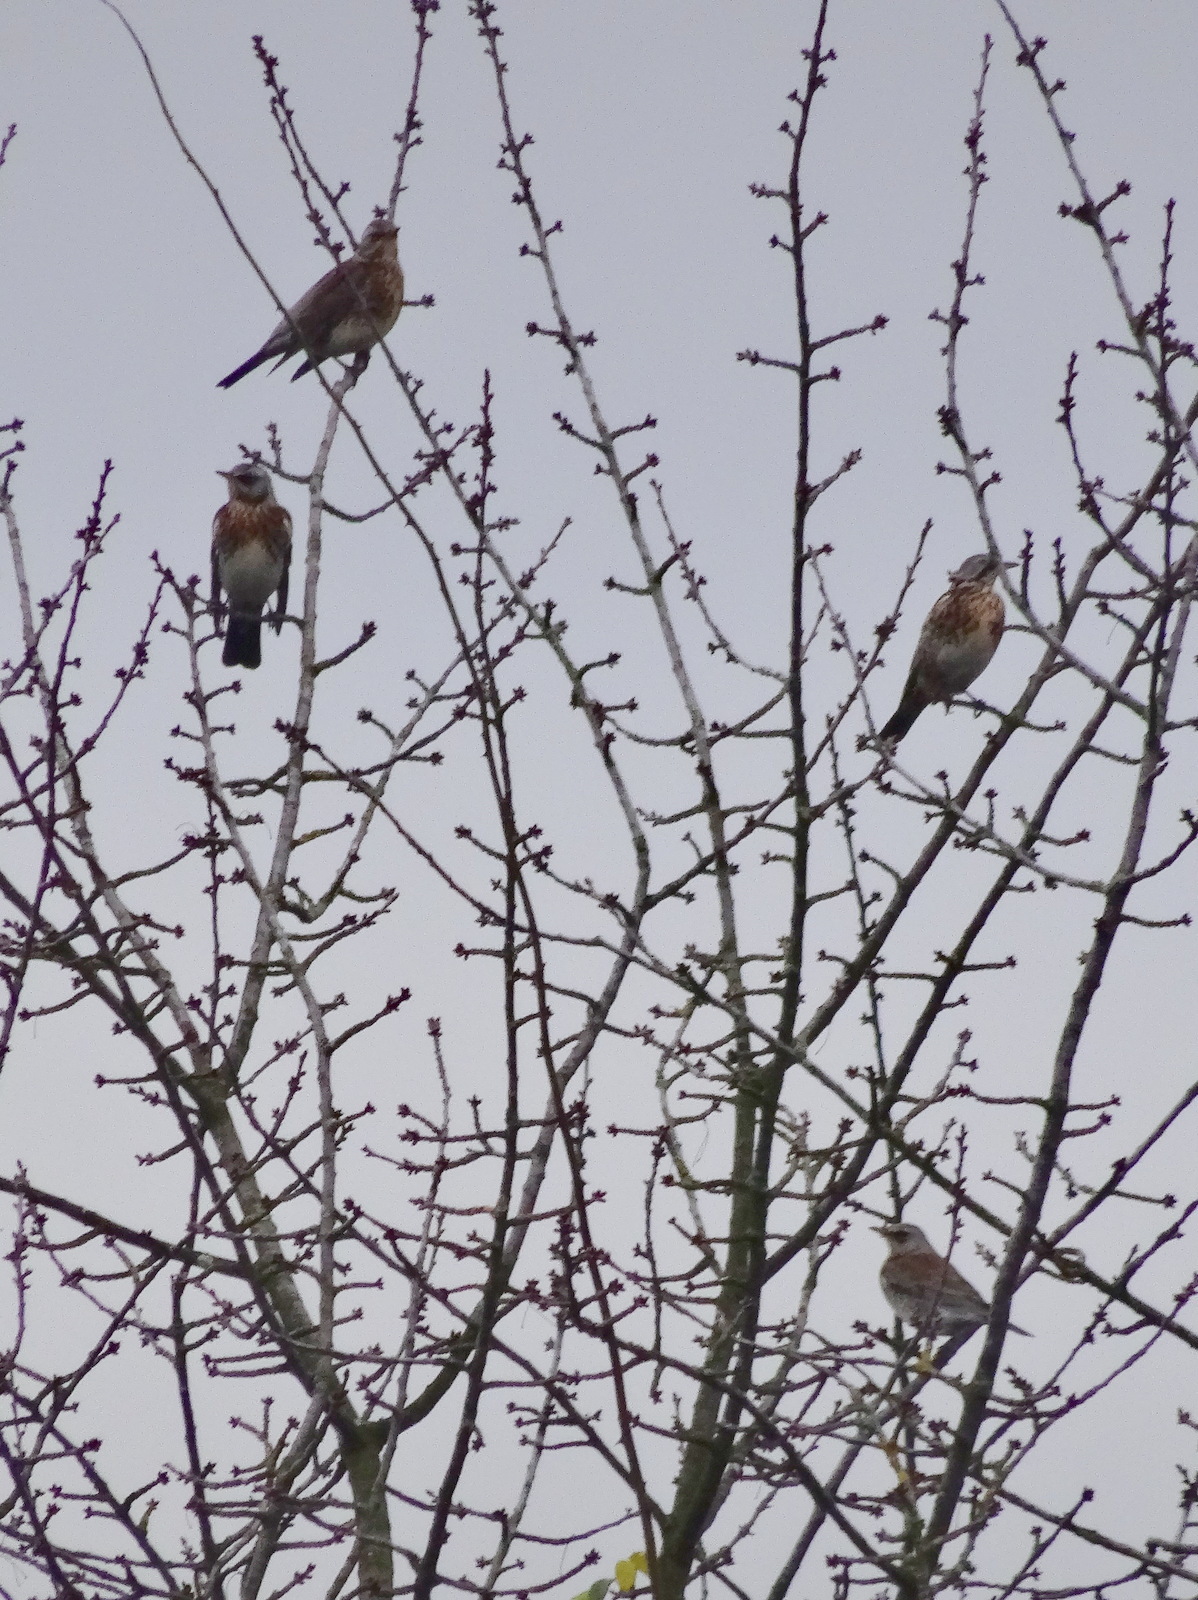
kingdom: Animalia
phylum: Chordata
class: Aves
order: Passeriformes
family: Turdidae
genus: Turdus
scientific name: Turdus pilaris
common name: Fieldfare
